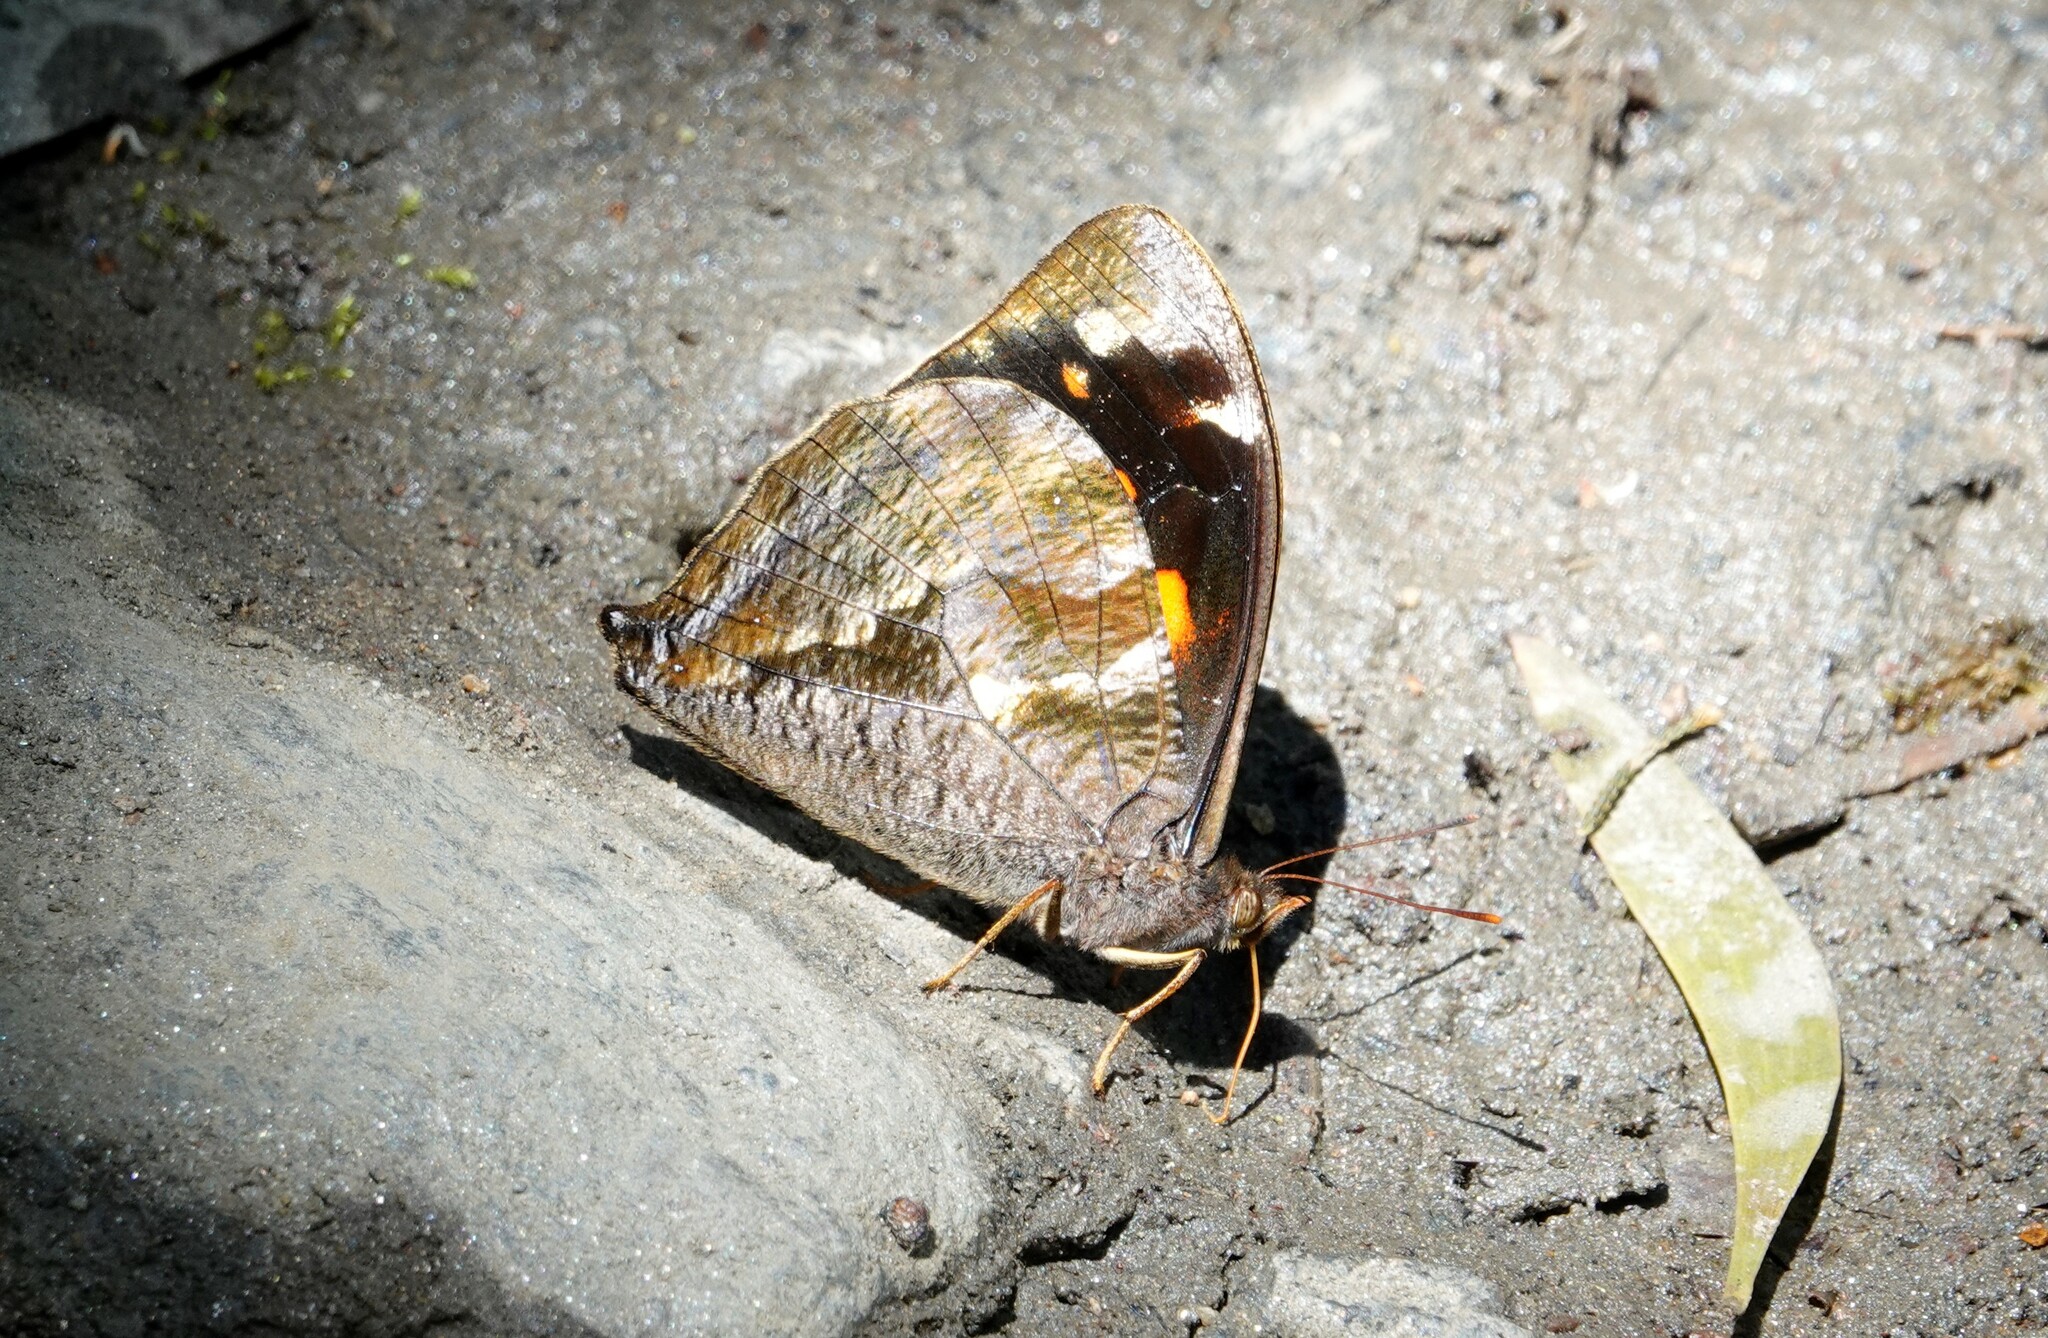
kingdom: Animalia
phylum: Arthropoda
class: Insecta
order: Lepidoptera
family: Nymphalidae
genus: Corades
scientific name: Corades medeba
